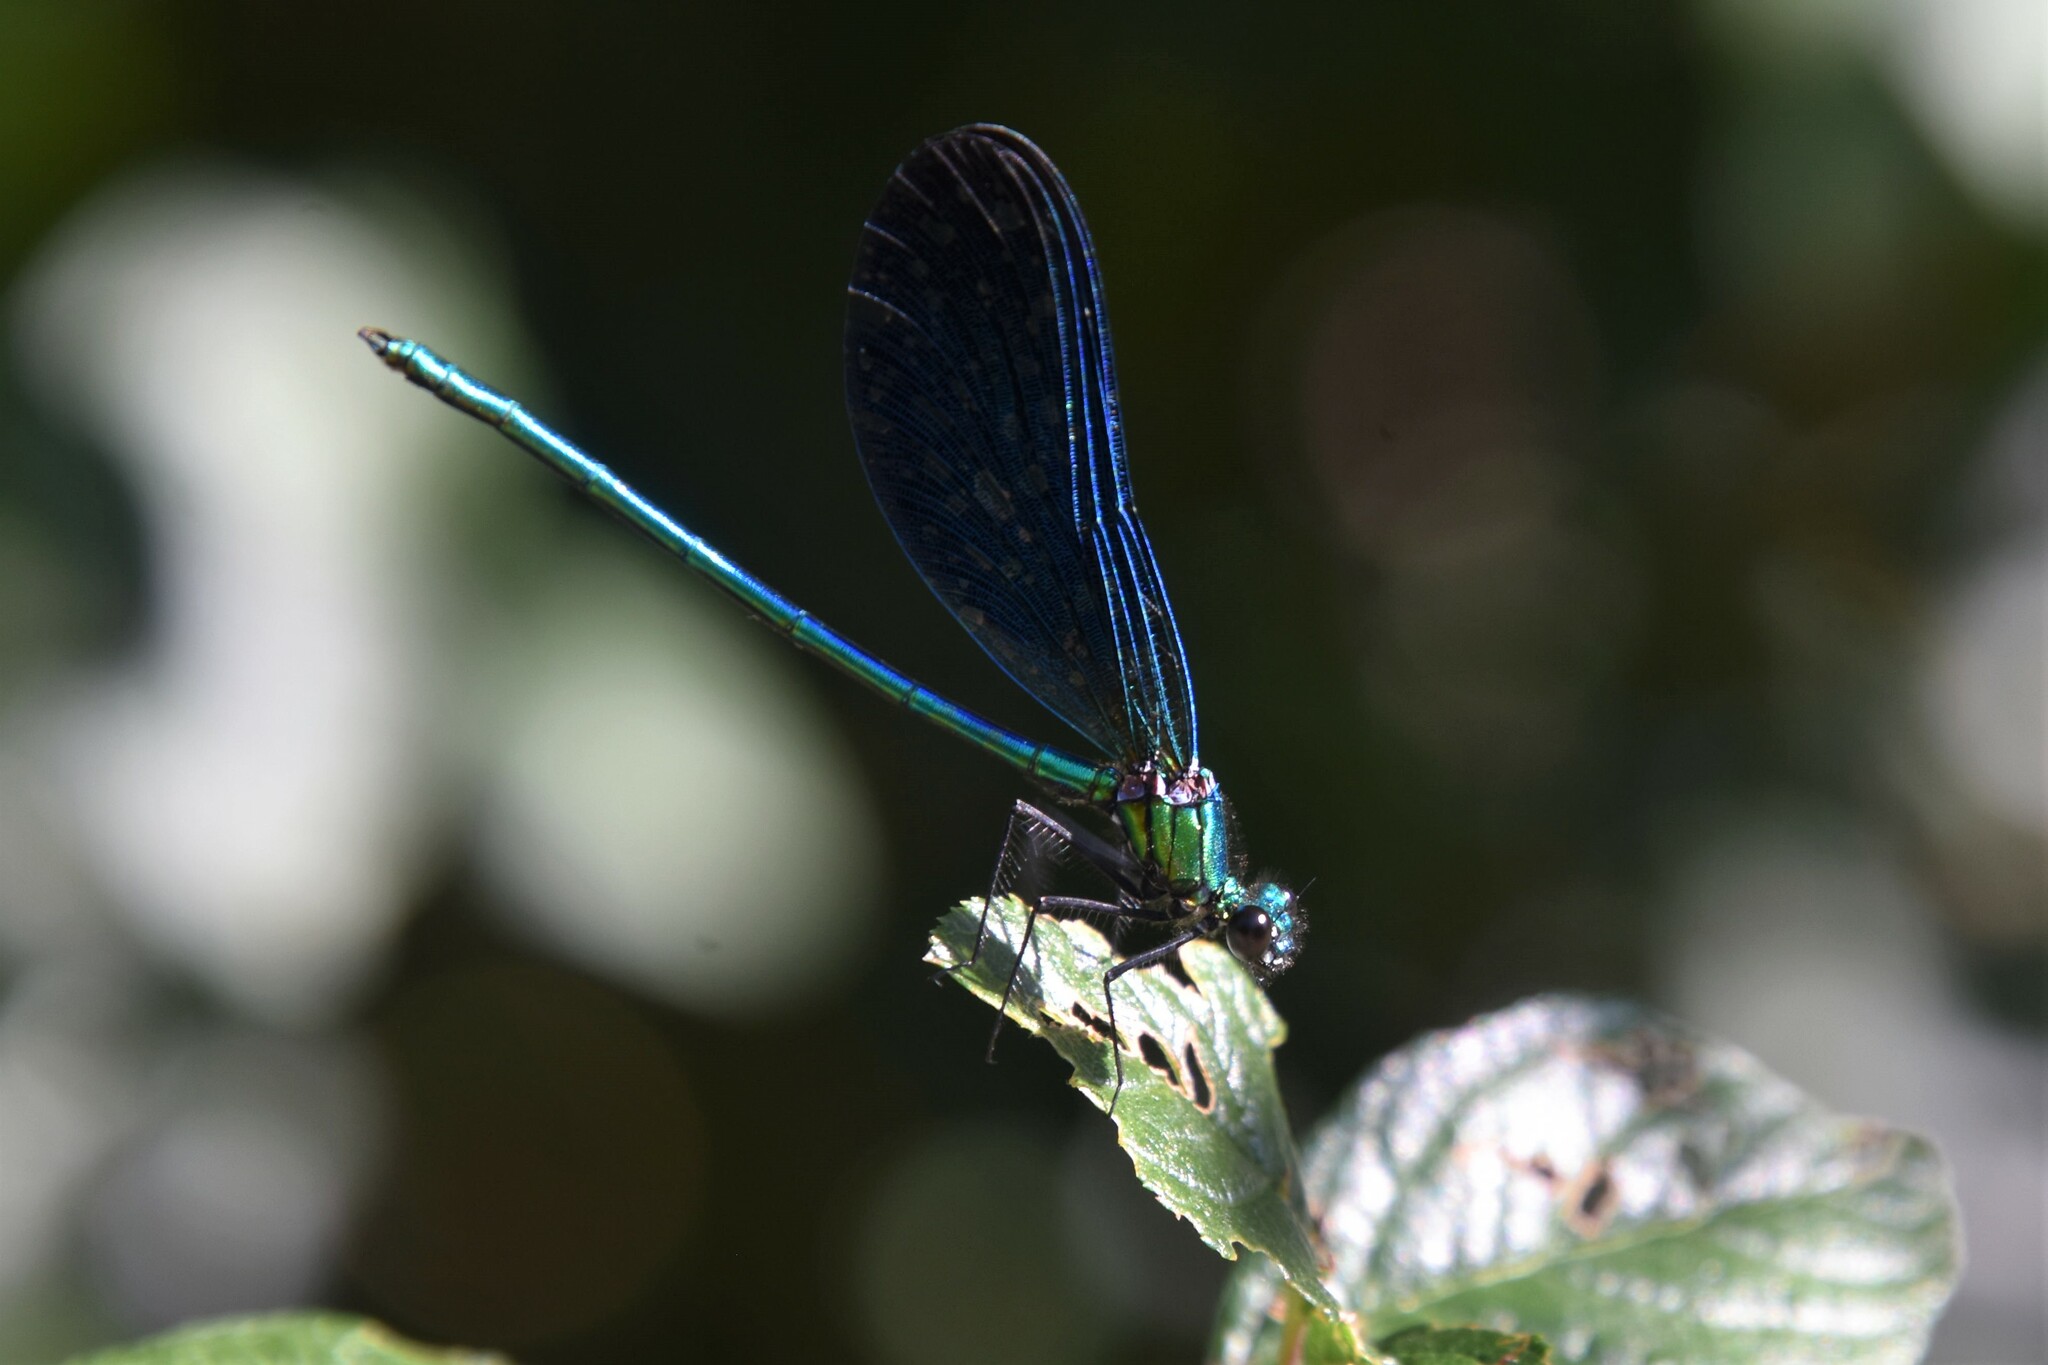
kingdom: Animalia
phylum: Arthropoda
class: Insecta
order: Odonata
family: Calopterygidae
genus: Calopteryx
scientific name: Calopteryx virgo
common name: Beautiful demoiselle
